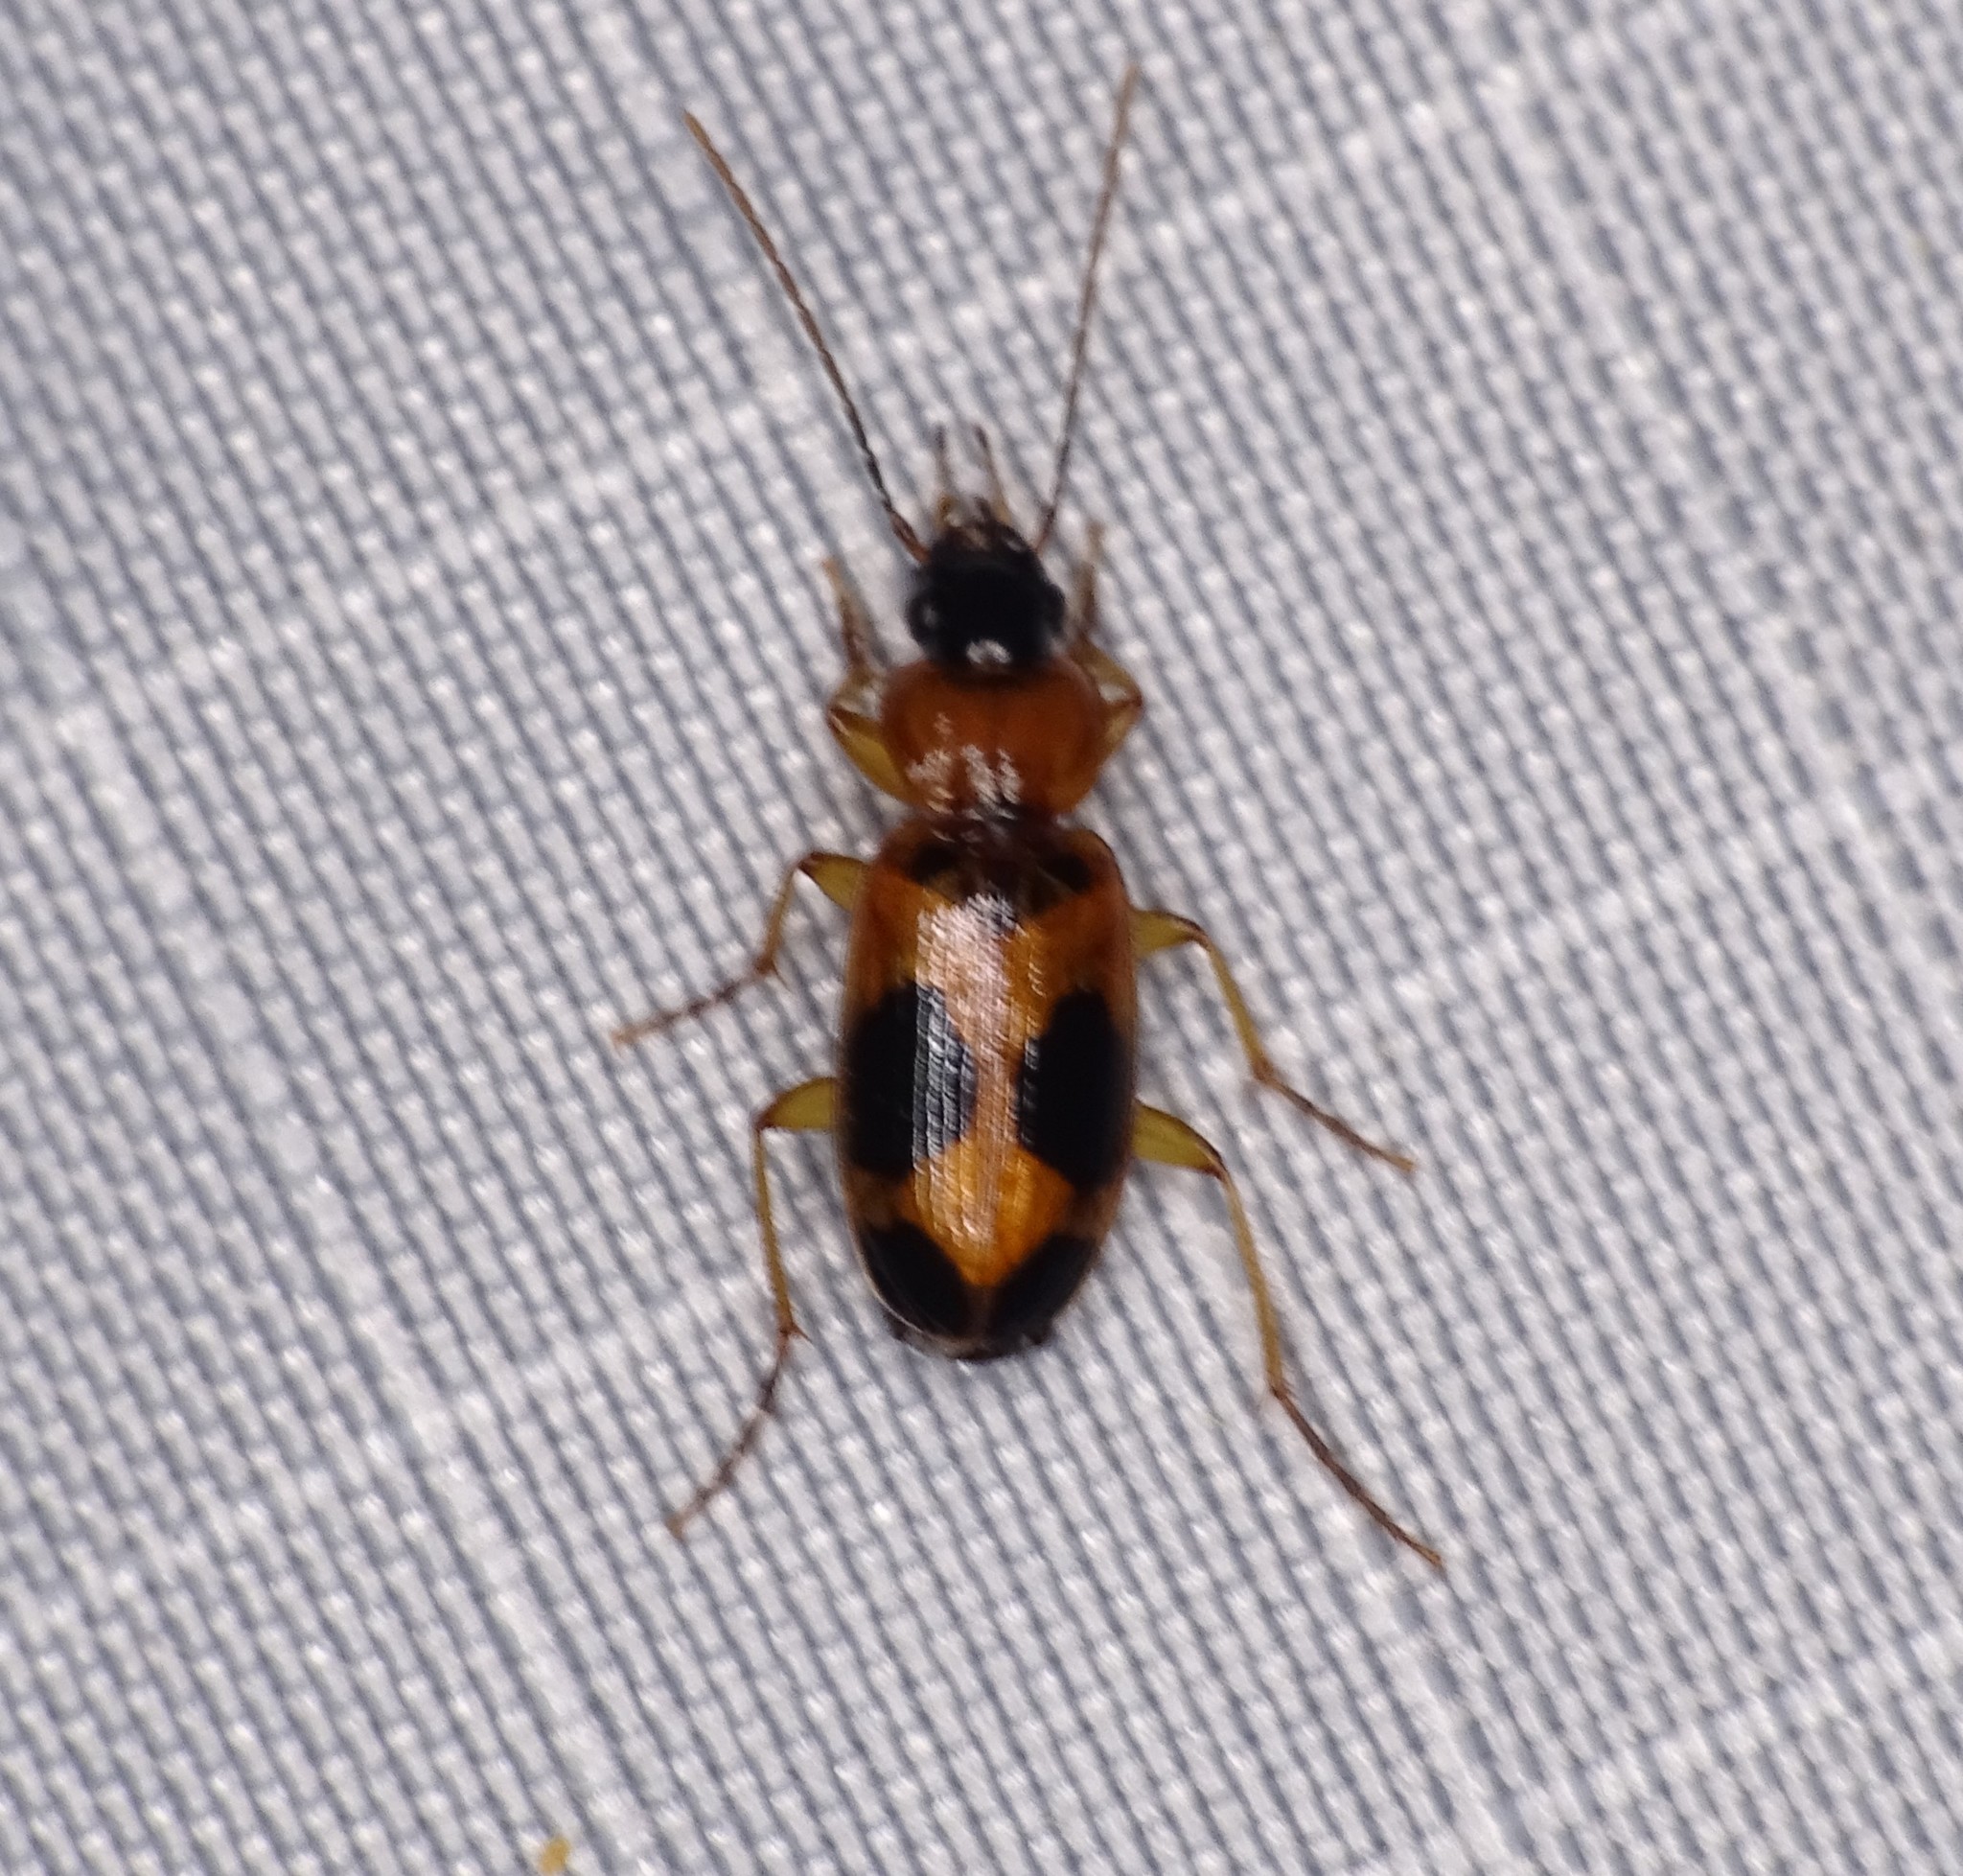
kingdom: Animalia
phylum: Arthropoda
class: Insecta
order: Coleoptera
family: Carabidae
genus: Badister
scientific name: Badister neopulchellus
